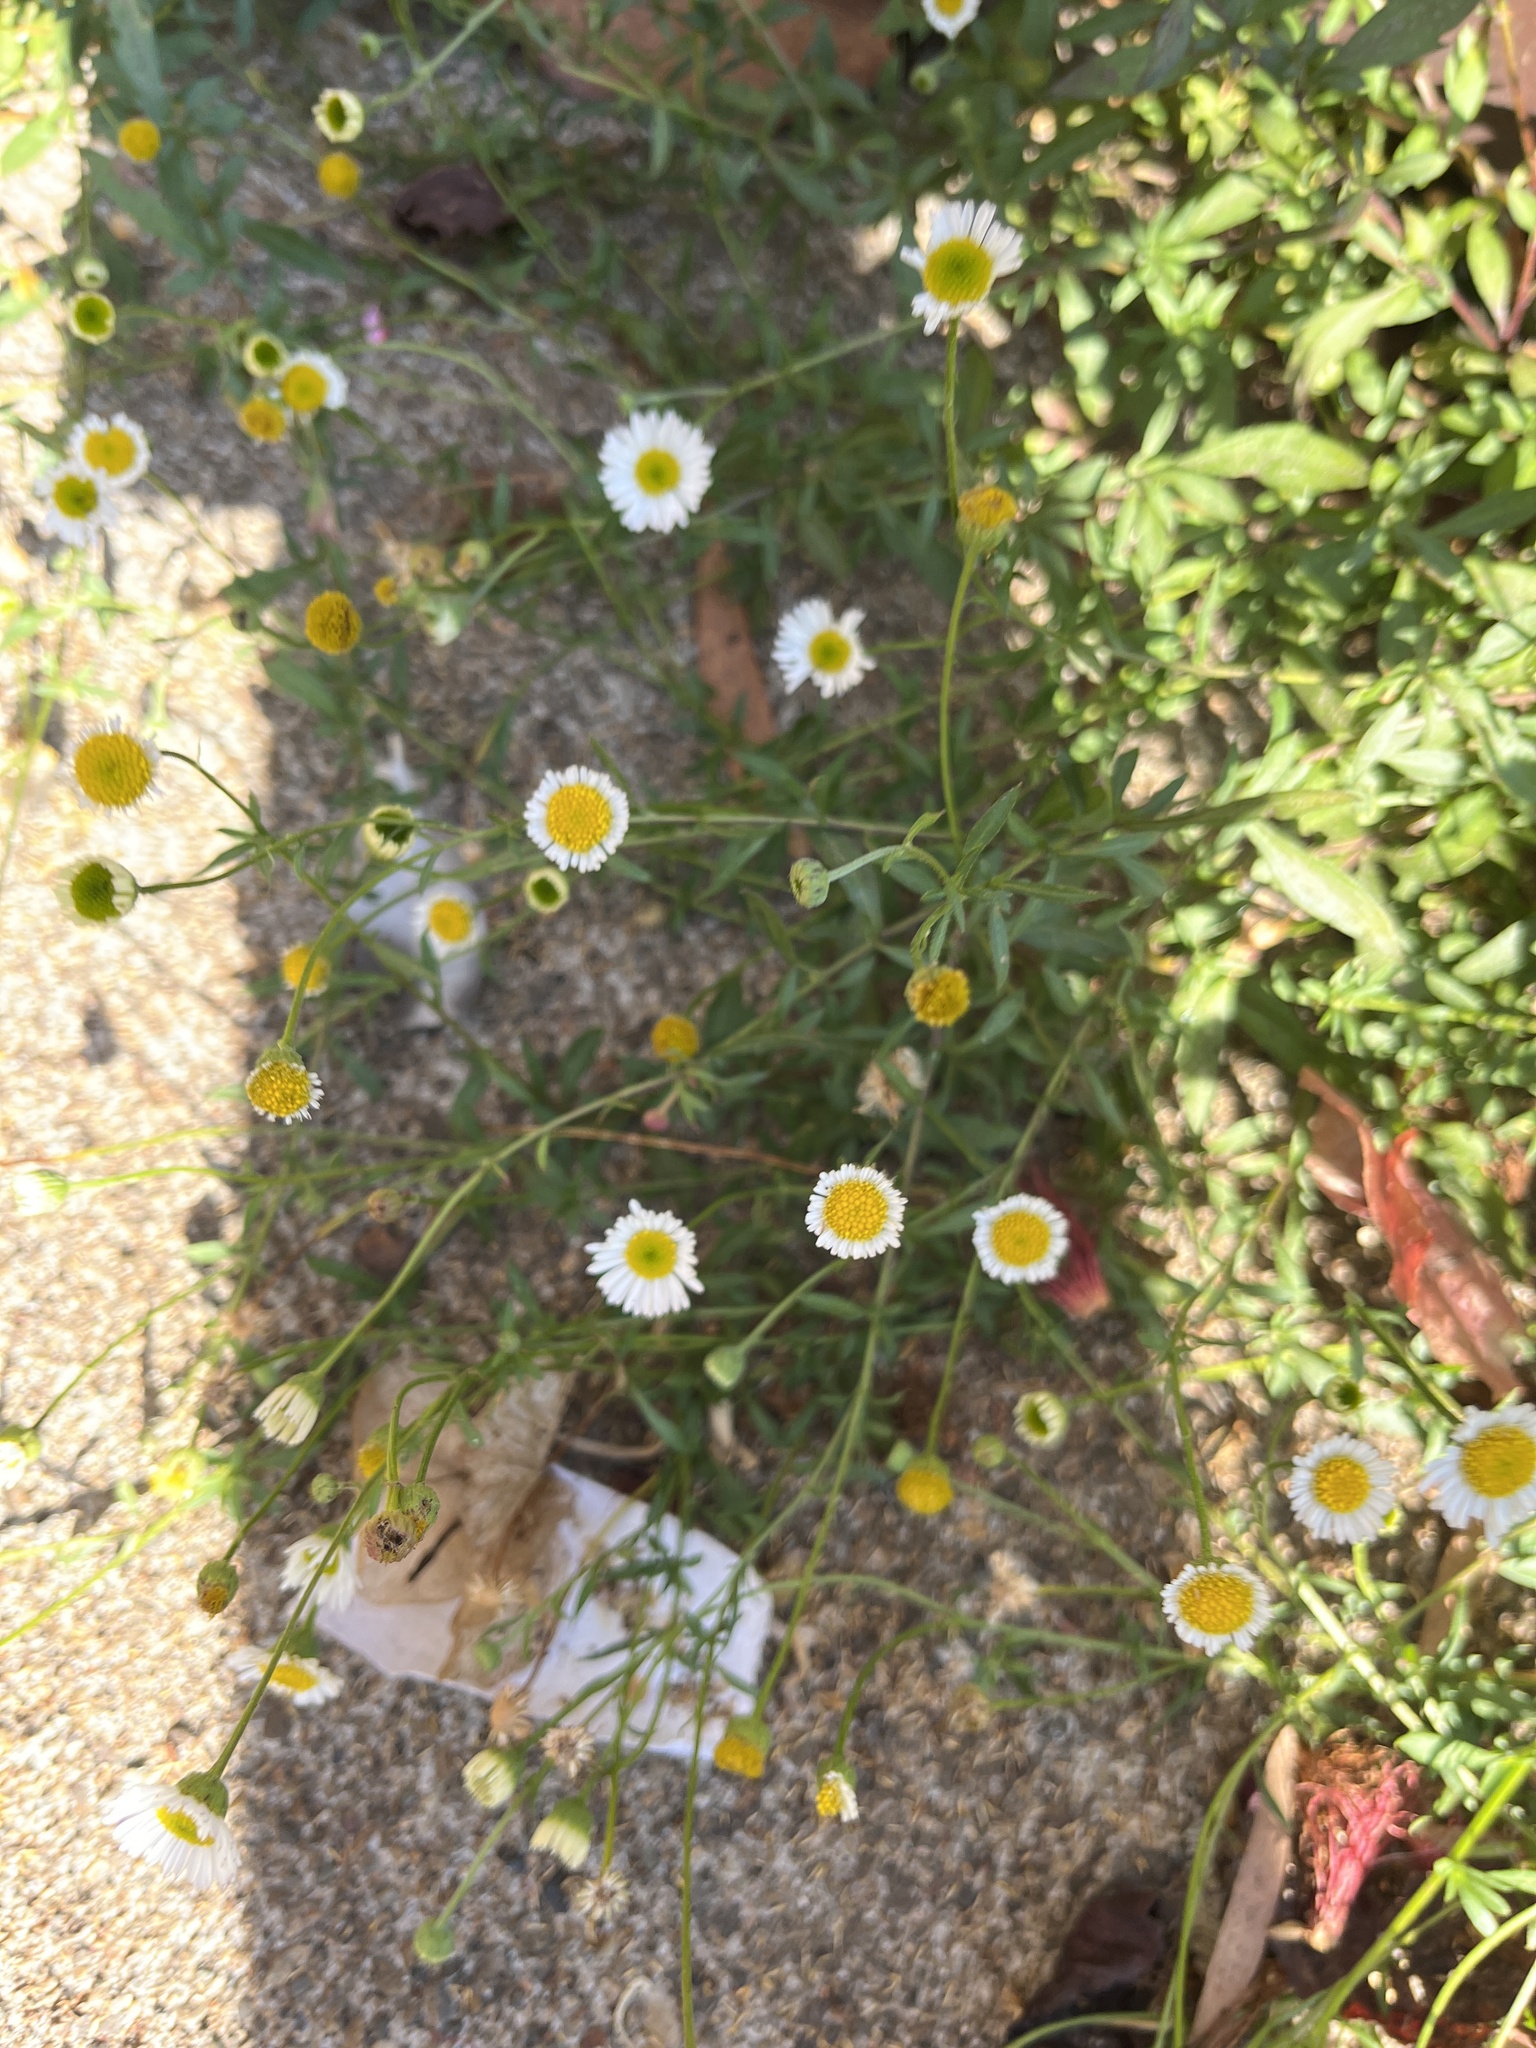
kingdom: Plantae
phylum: Tracheophyta
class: Magnoliopsida
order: Asterales
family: Asteraceae
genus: Erigeron
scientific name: Erigeron karvinskianus
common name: Mexican fleabane
